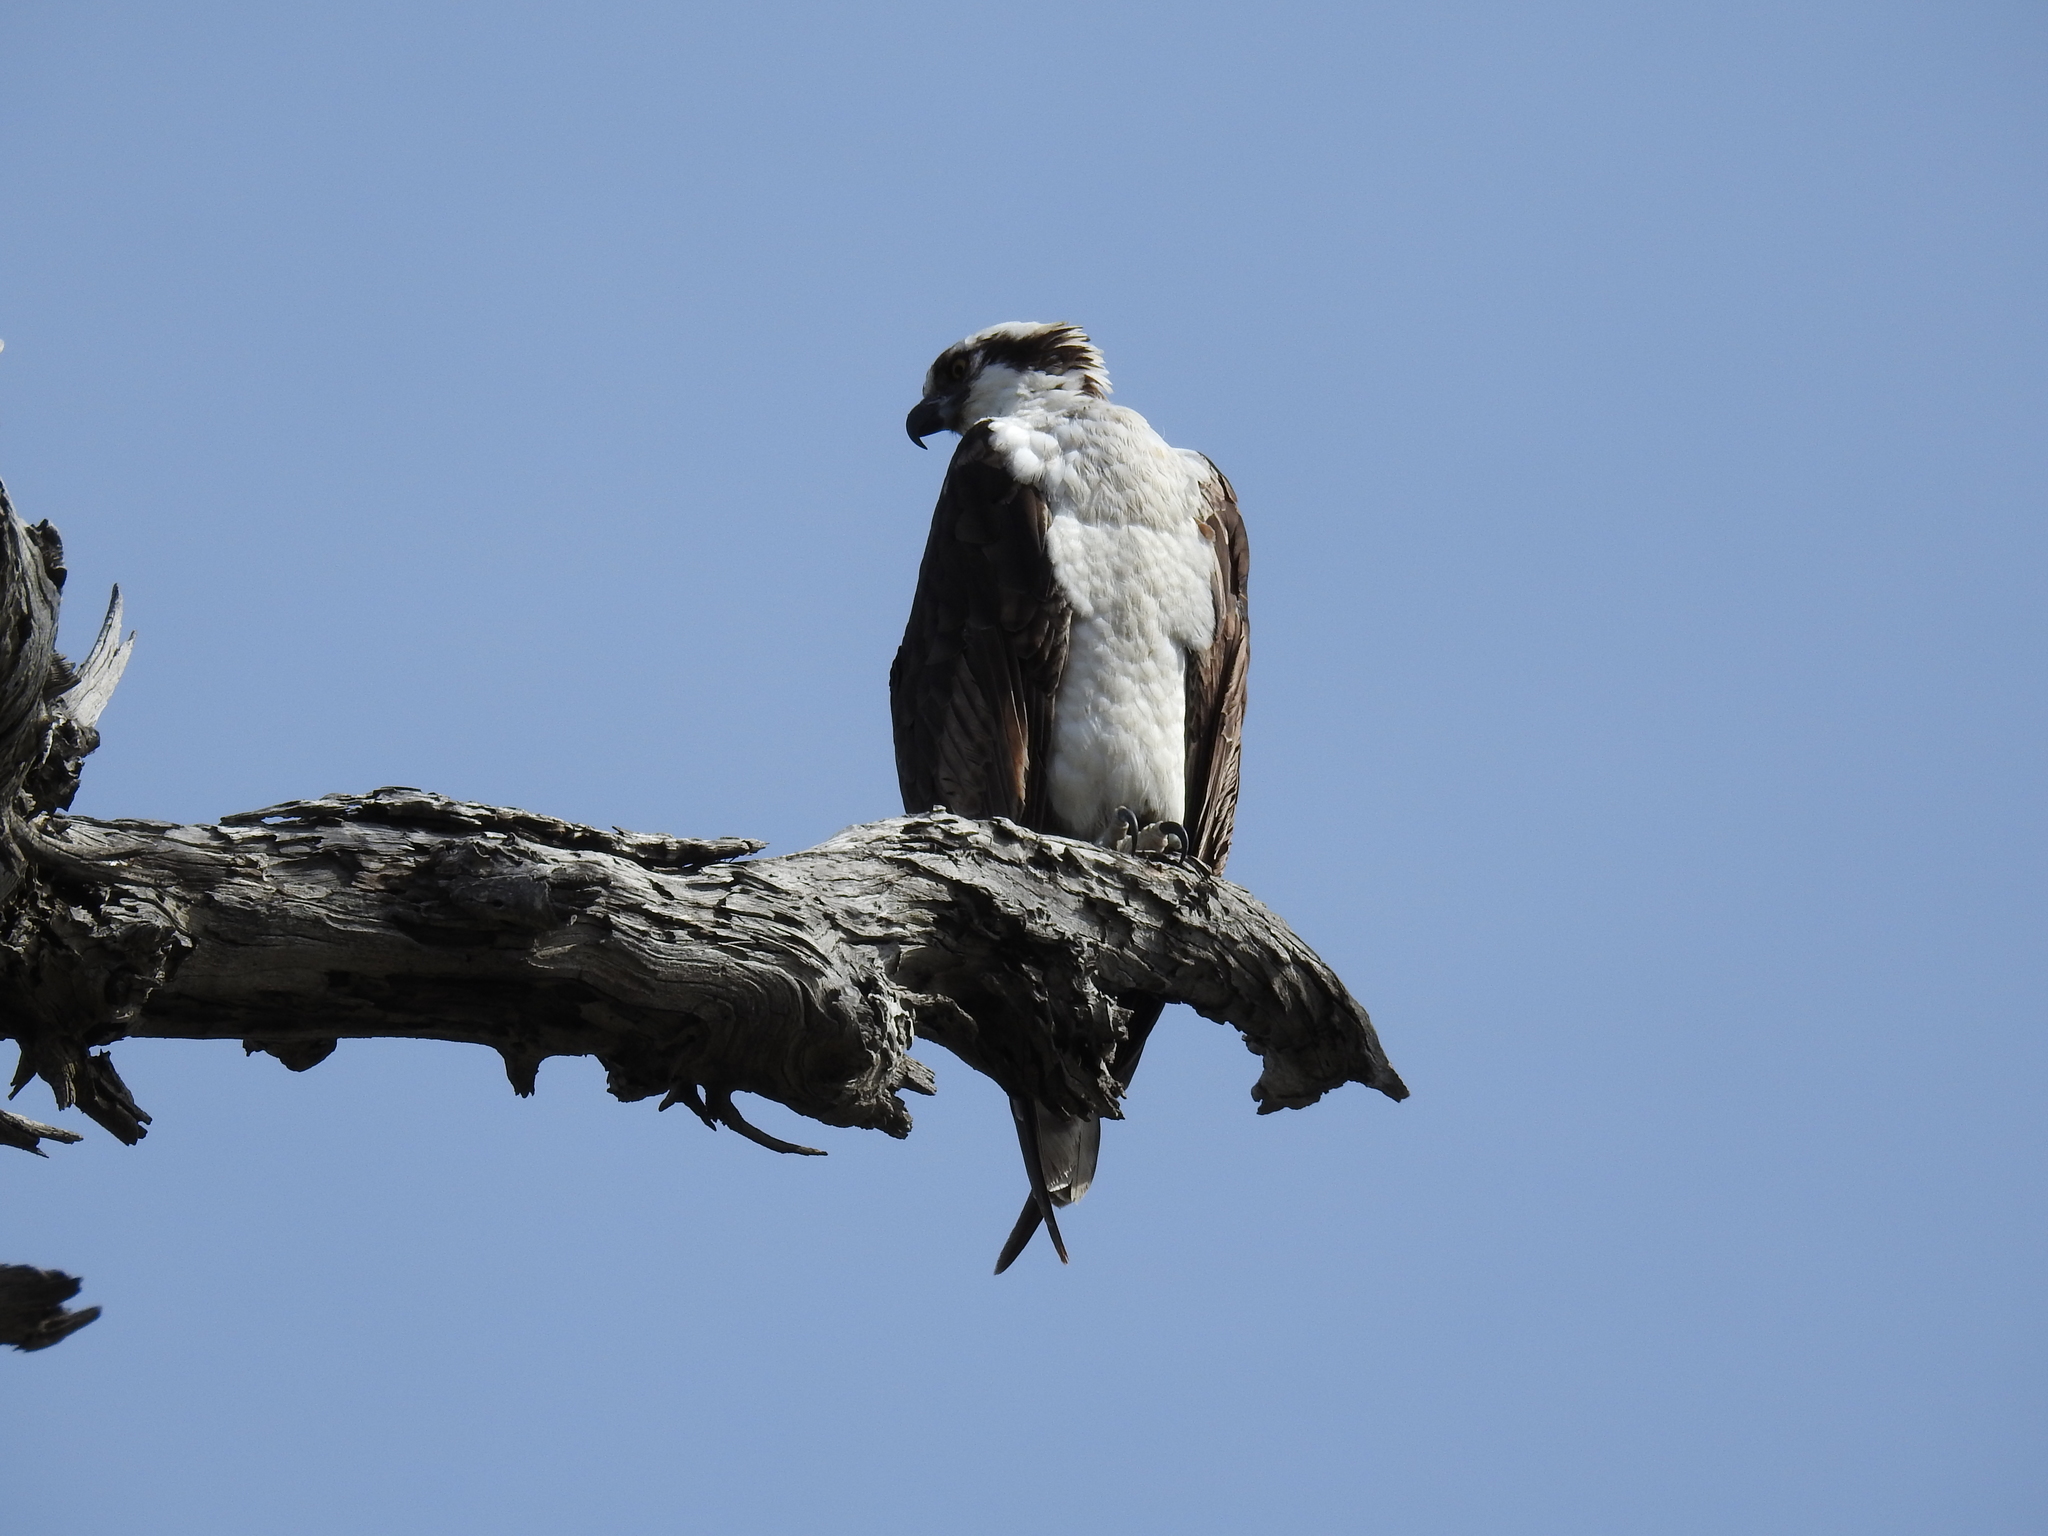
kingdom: Animalia
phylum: Chordata
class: Aves
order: Accipitriformes
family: Pandionidae
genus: Pandion
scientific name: Pandion haliaetus
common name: Osprey
